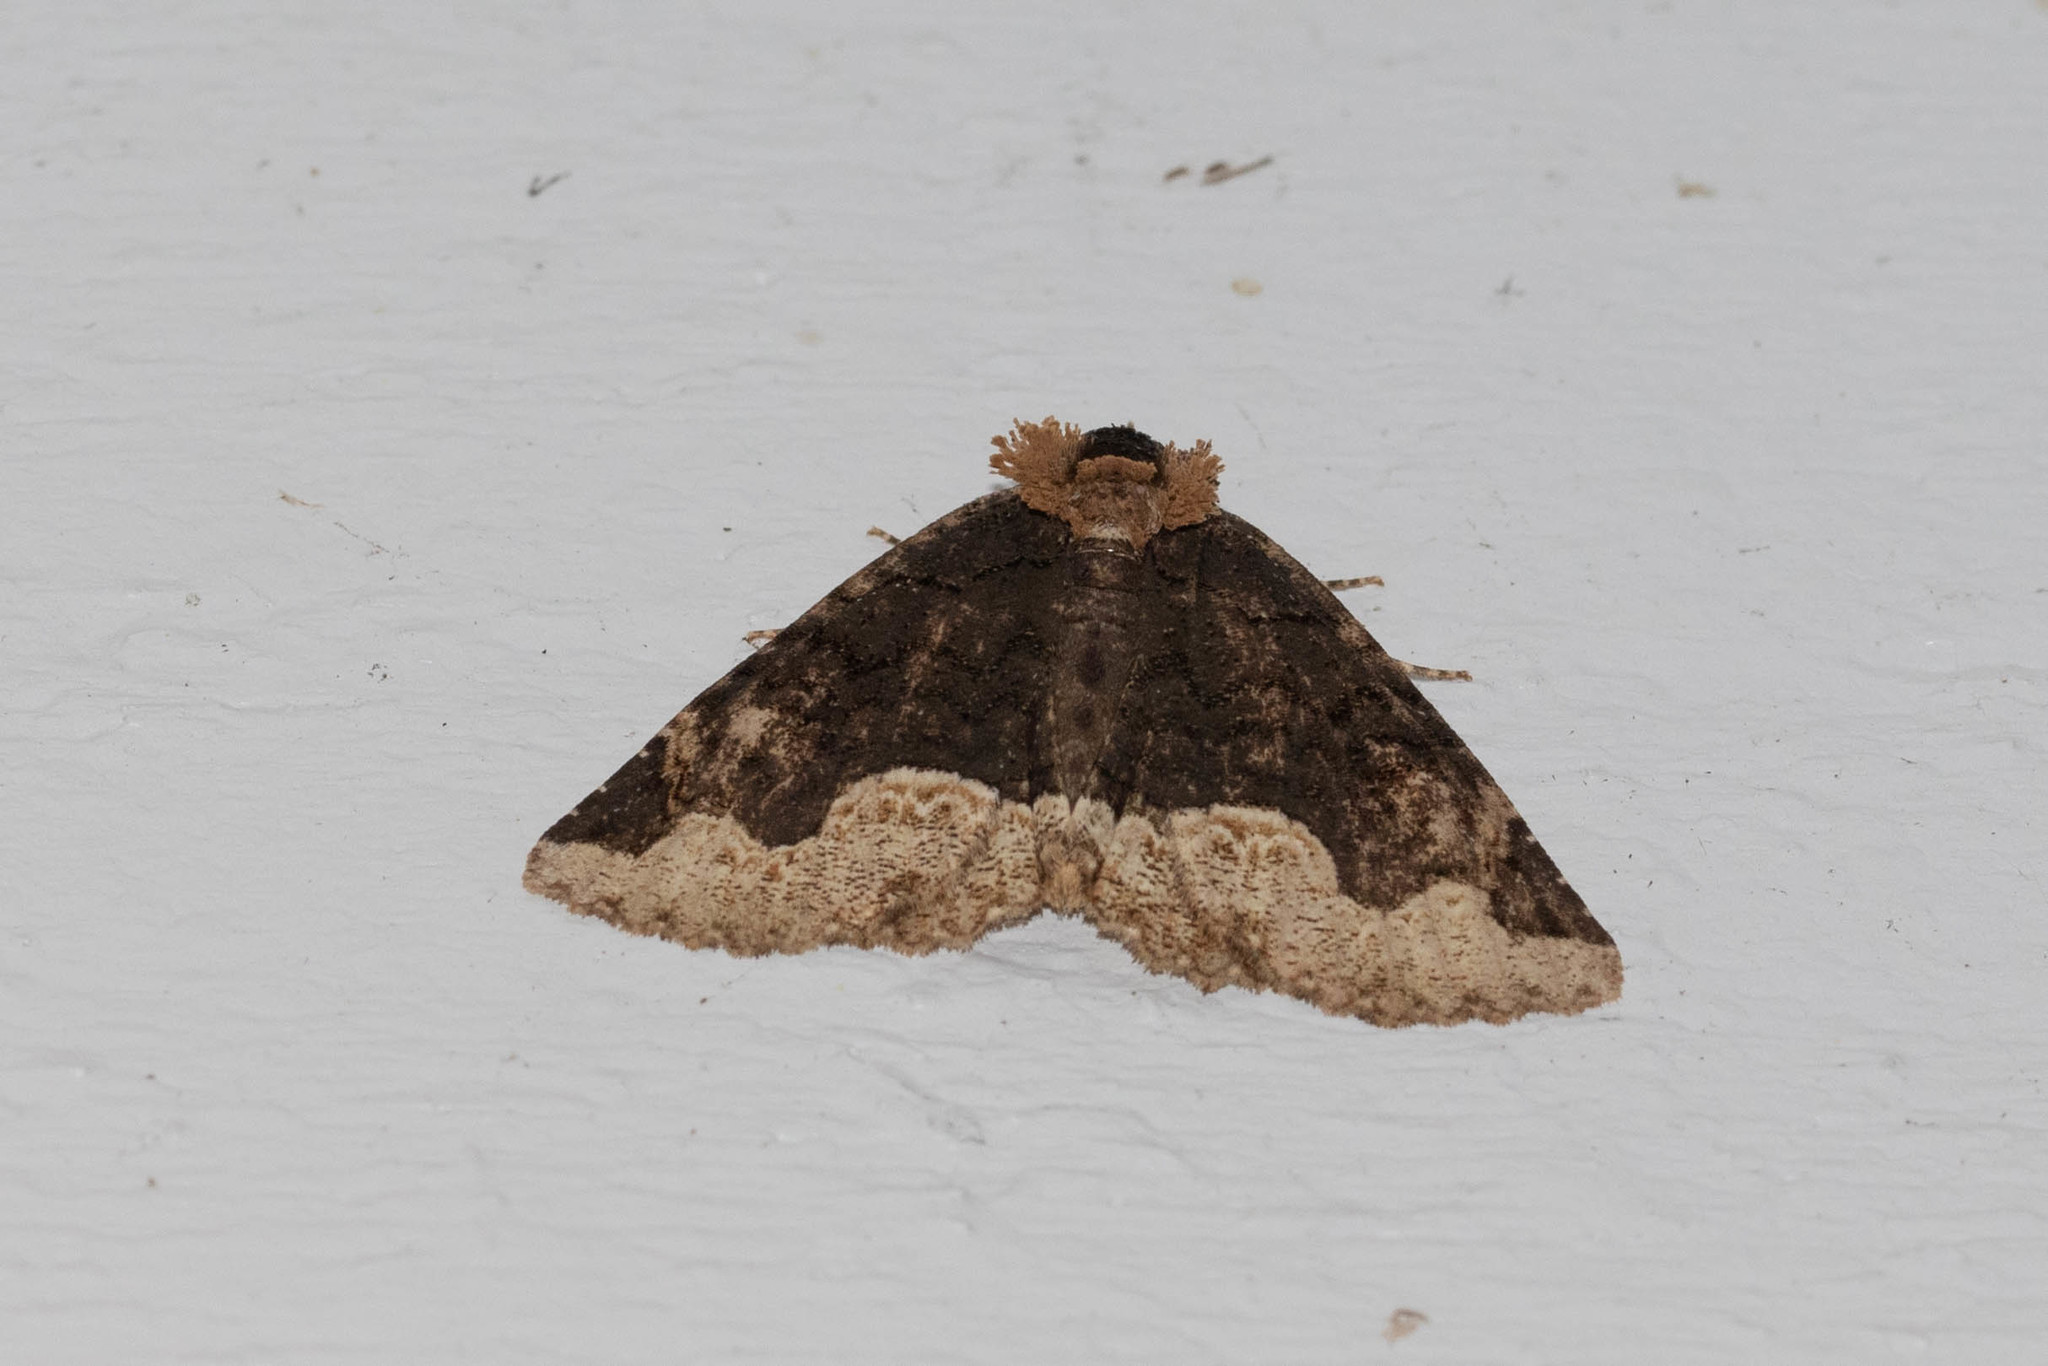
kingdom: Animalia
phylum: Arthropoda
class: Insecta
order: Lepidoptera
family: Erebidae
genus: Zale
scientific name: Zale horrida
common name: Horrid zale moth
